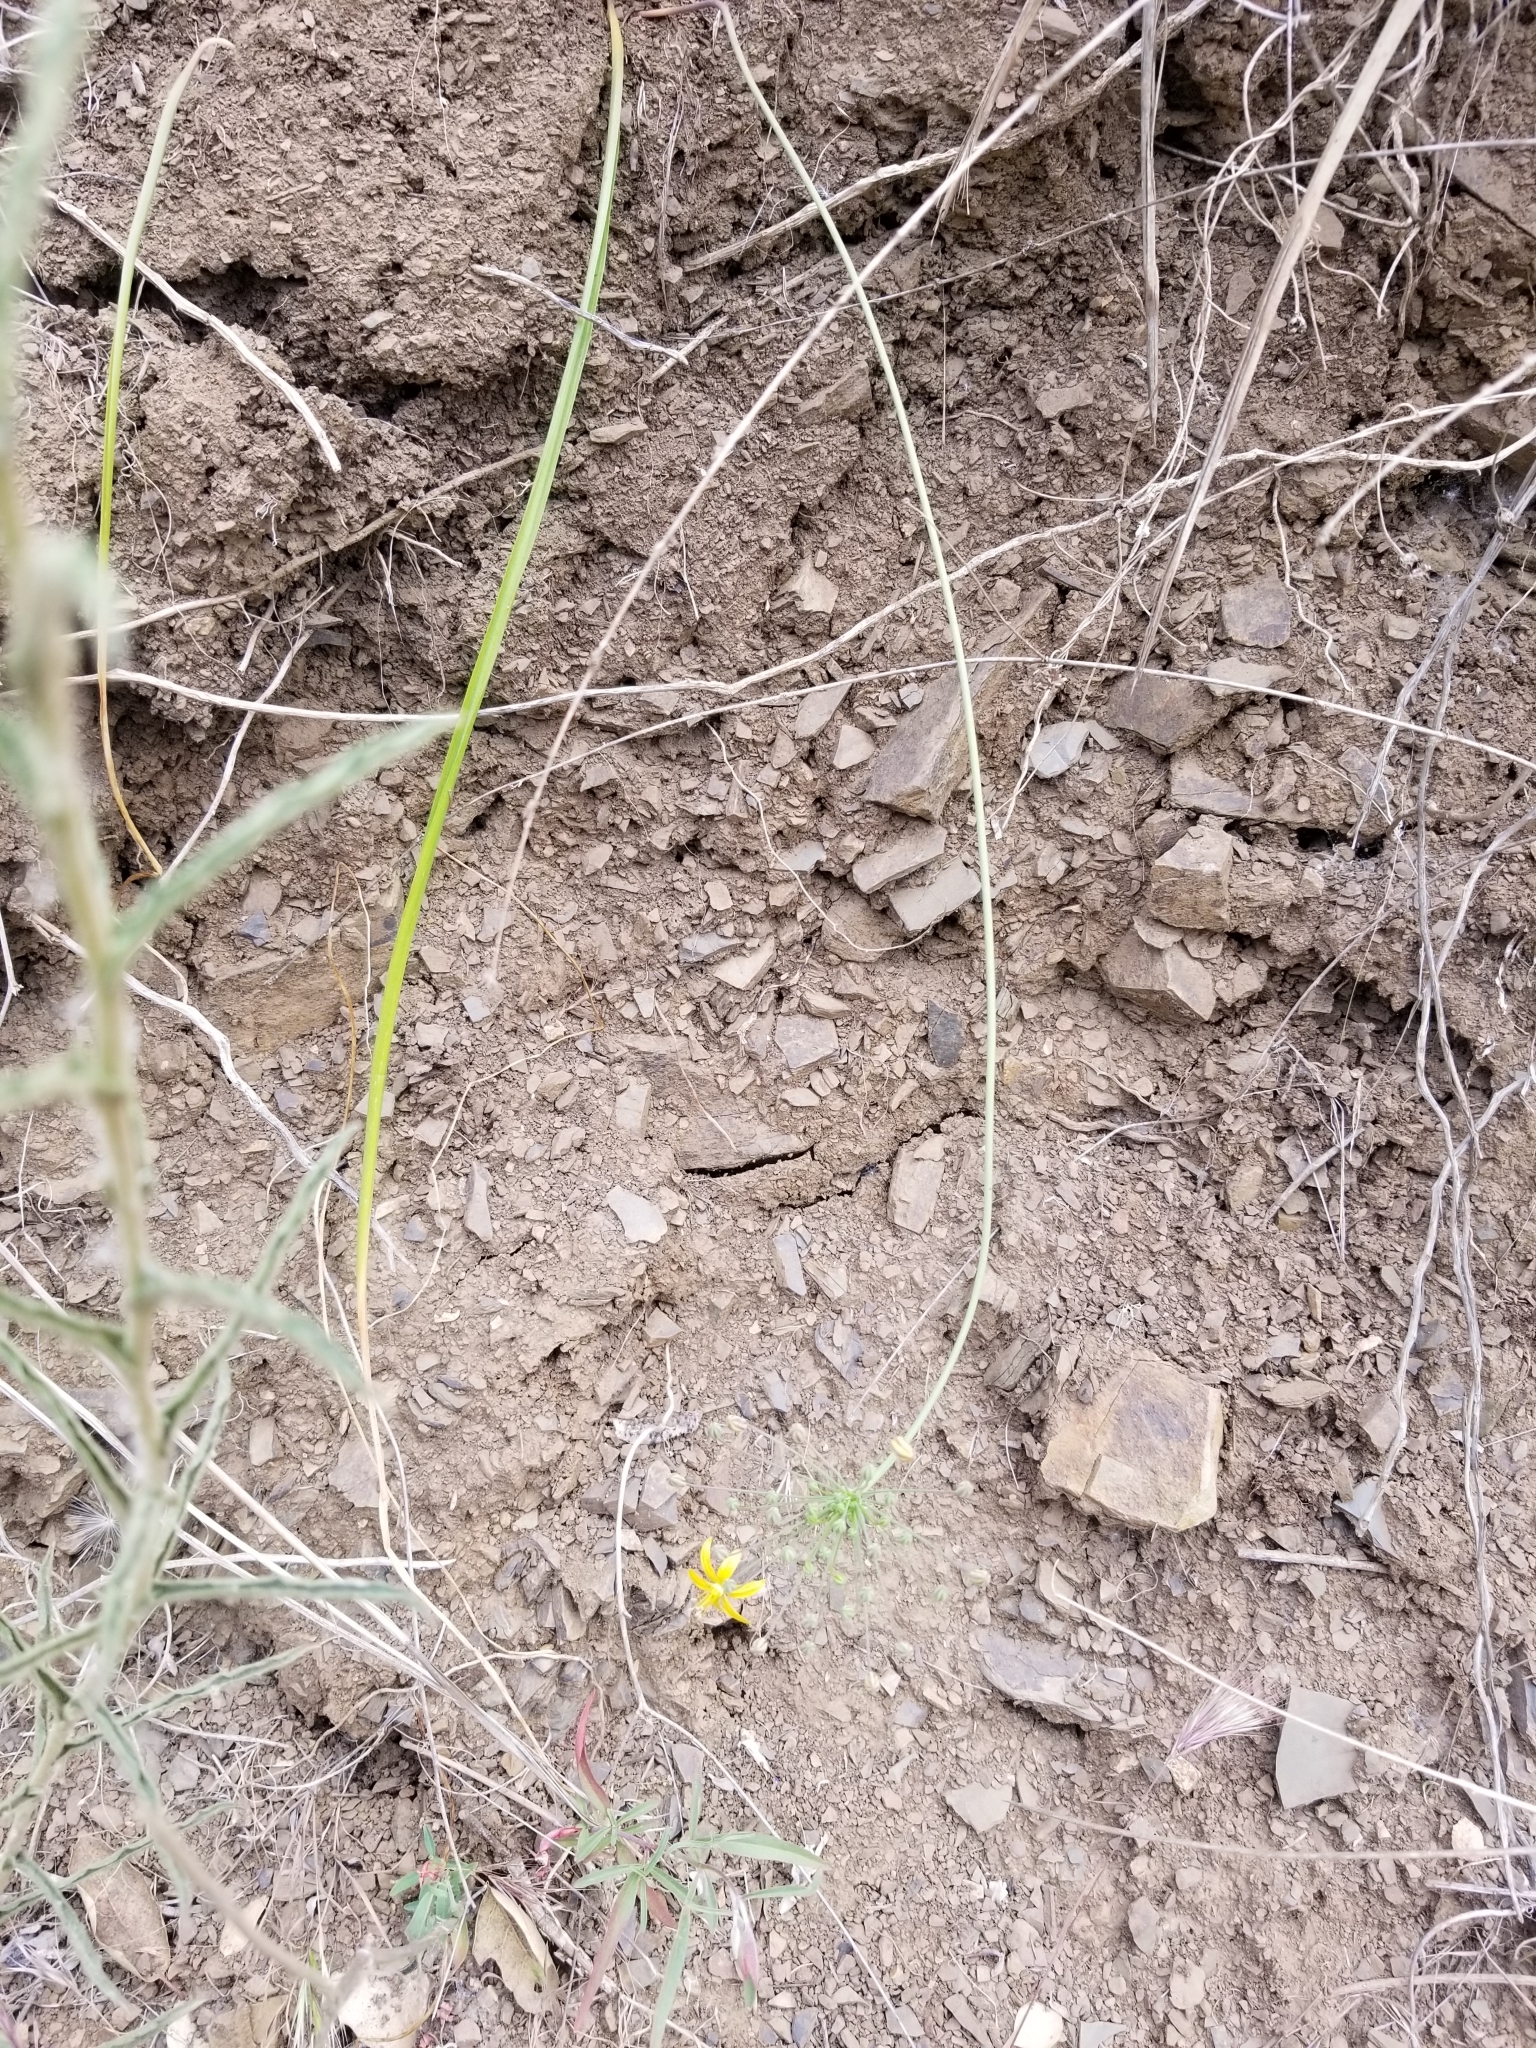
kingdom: Plantae
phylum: Tracheophyta
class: Liliopsida
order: Asparagales
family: Asparagaceae
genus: Bloomeria
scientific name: Bloomeria crocea
